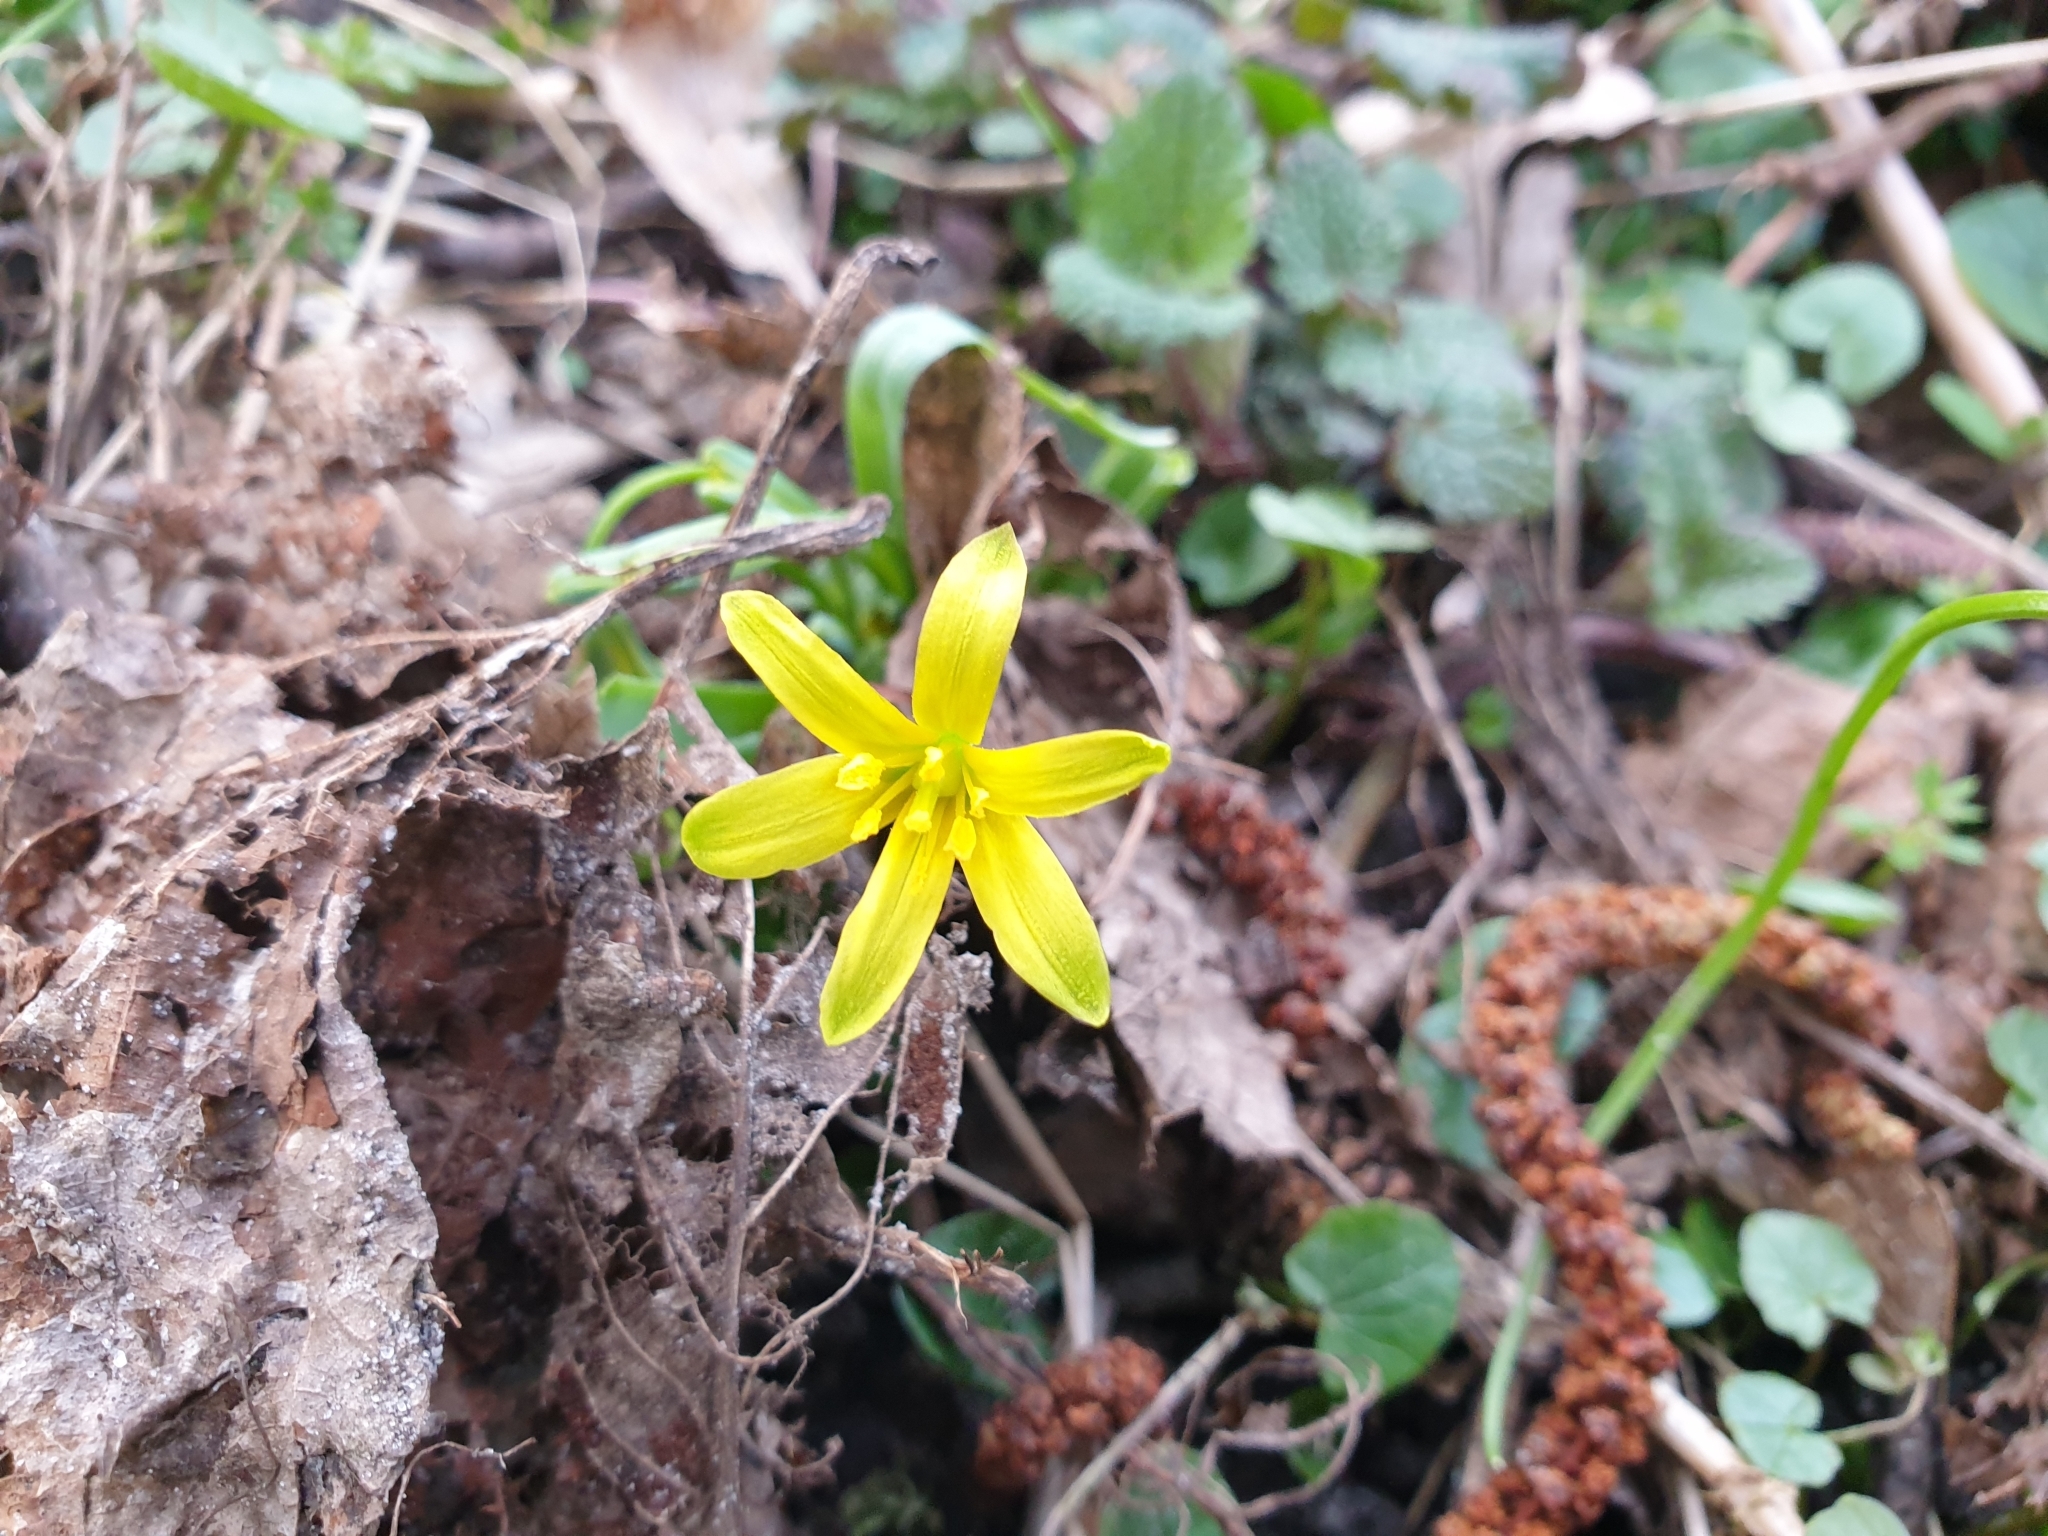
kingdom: Plantae
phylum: Tracheophyta
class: Liliopsida
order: Liliales
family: Liliaceae
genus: Gagea
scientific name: Gagea lutea
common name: Yellow star-of-bethlehem
